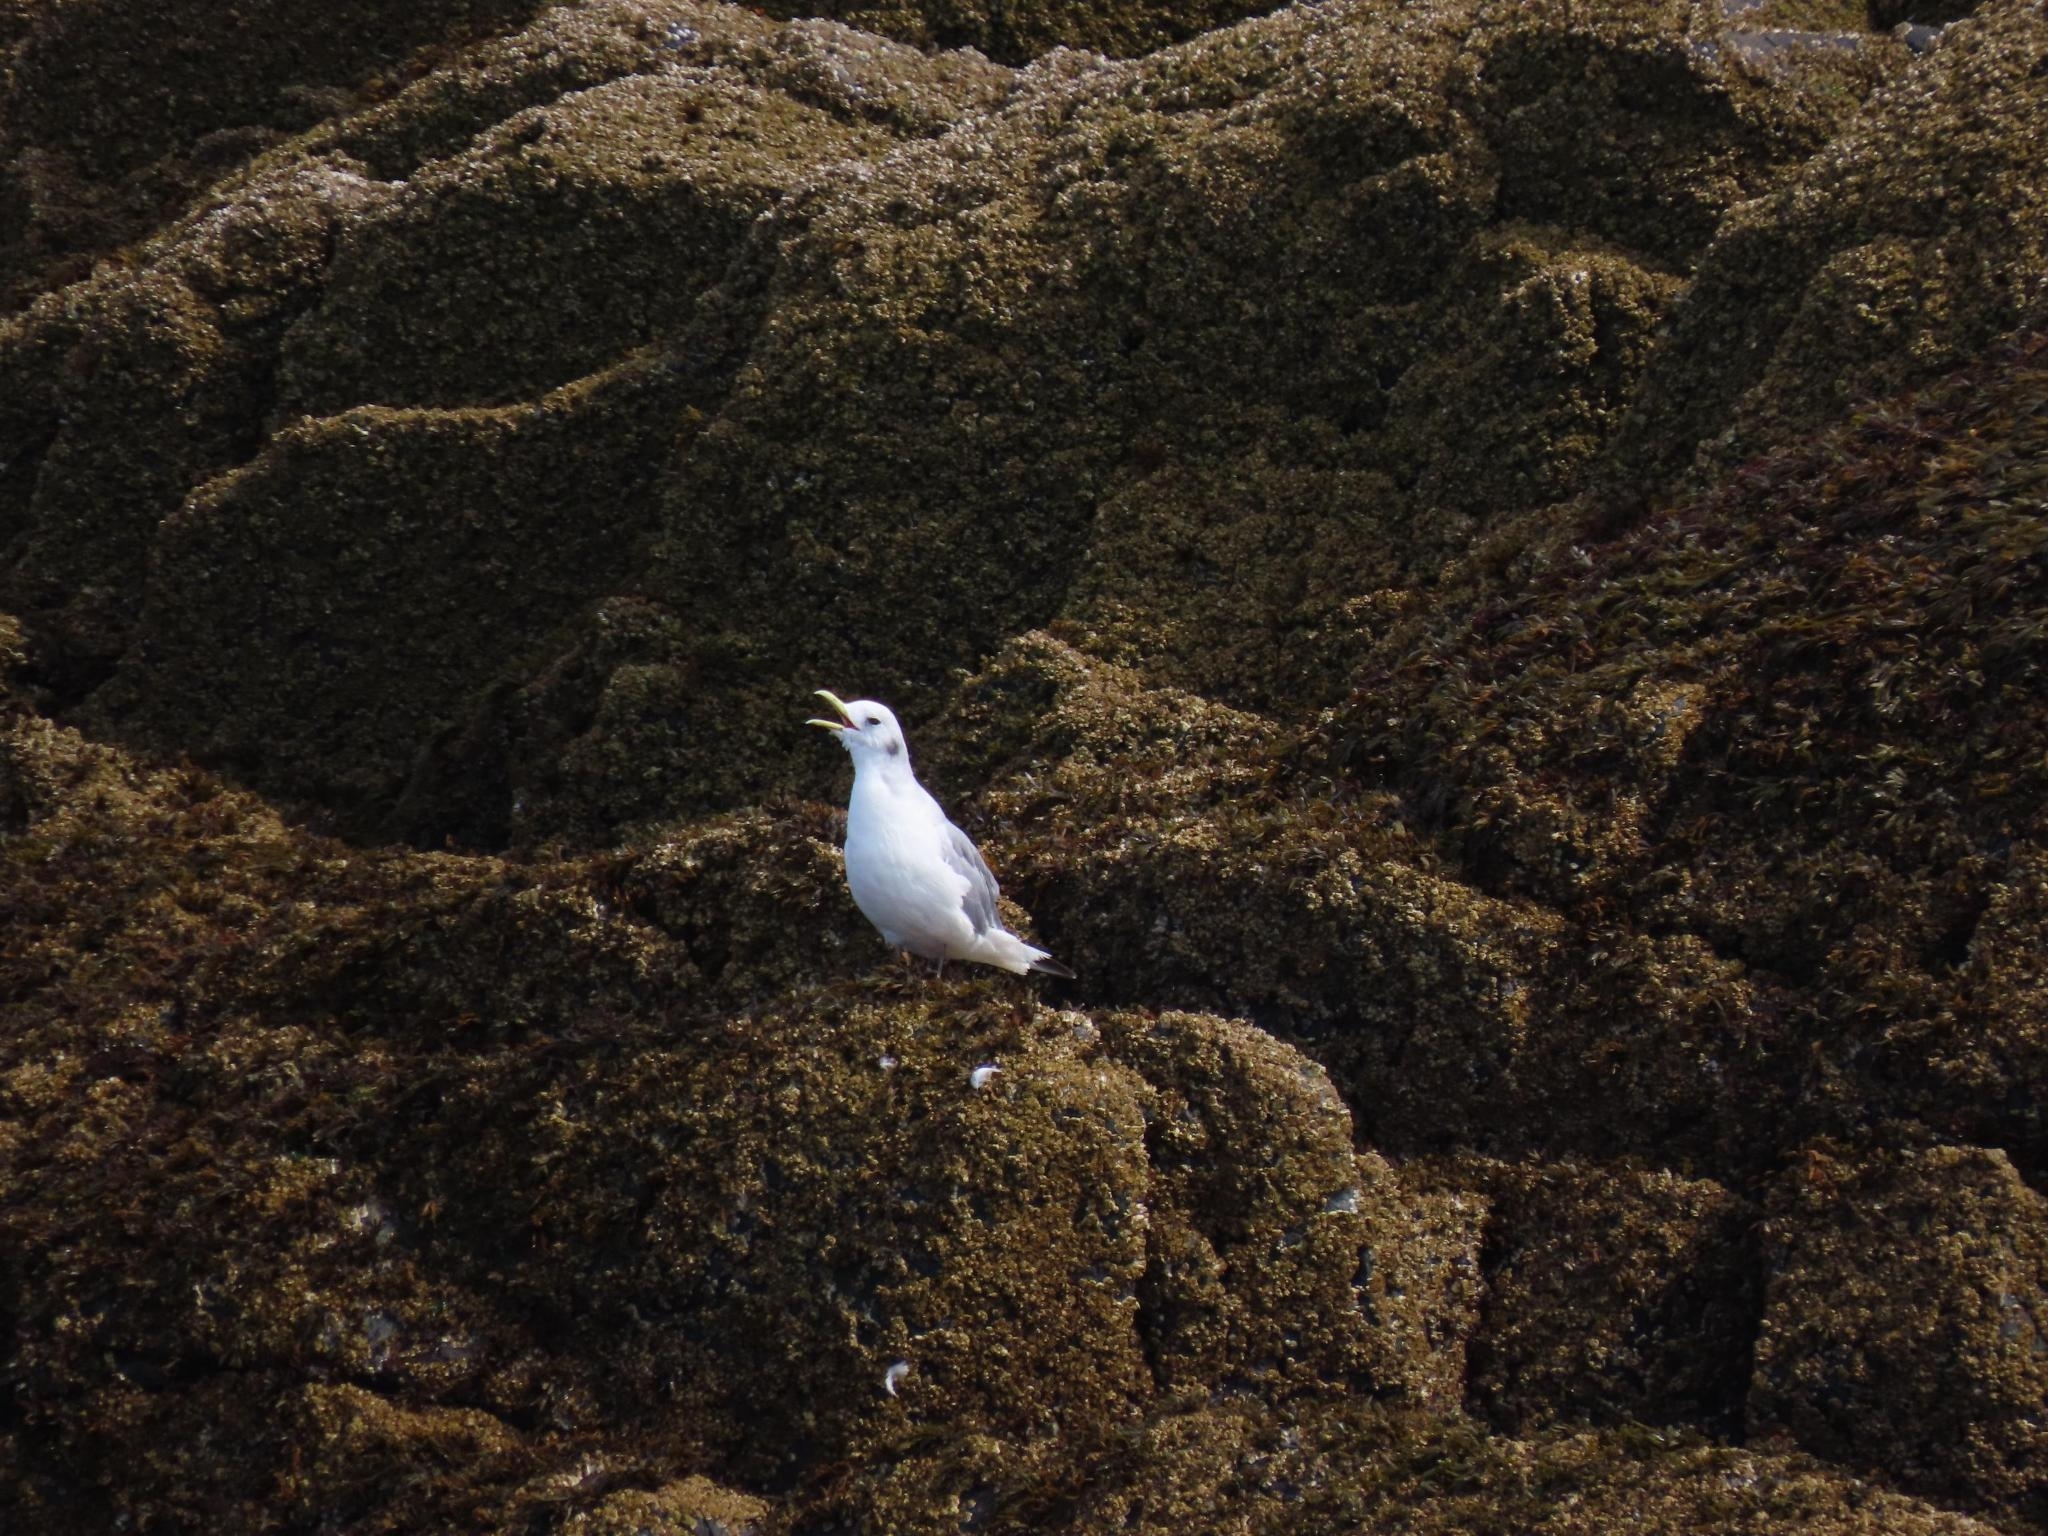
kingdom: Animalia
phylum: Chordata
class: Aves
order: Charadriiformes
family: Laridae
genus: Rissa
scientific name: Rissa tridactyla
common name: Black-legged kittiwake
